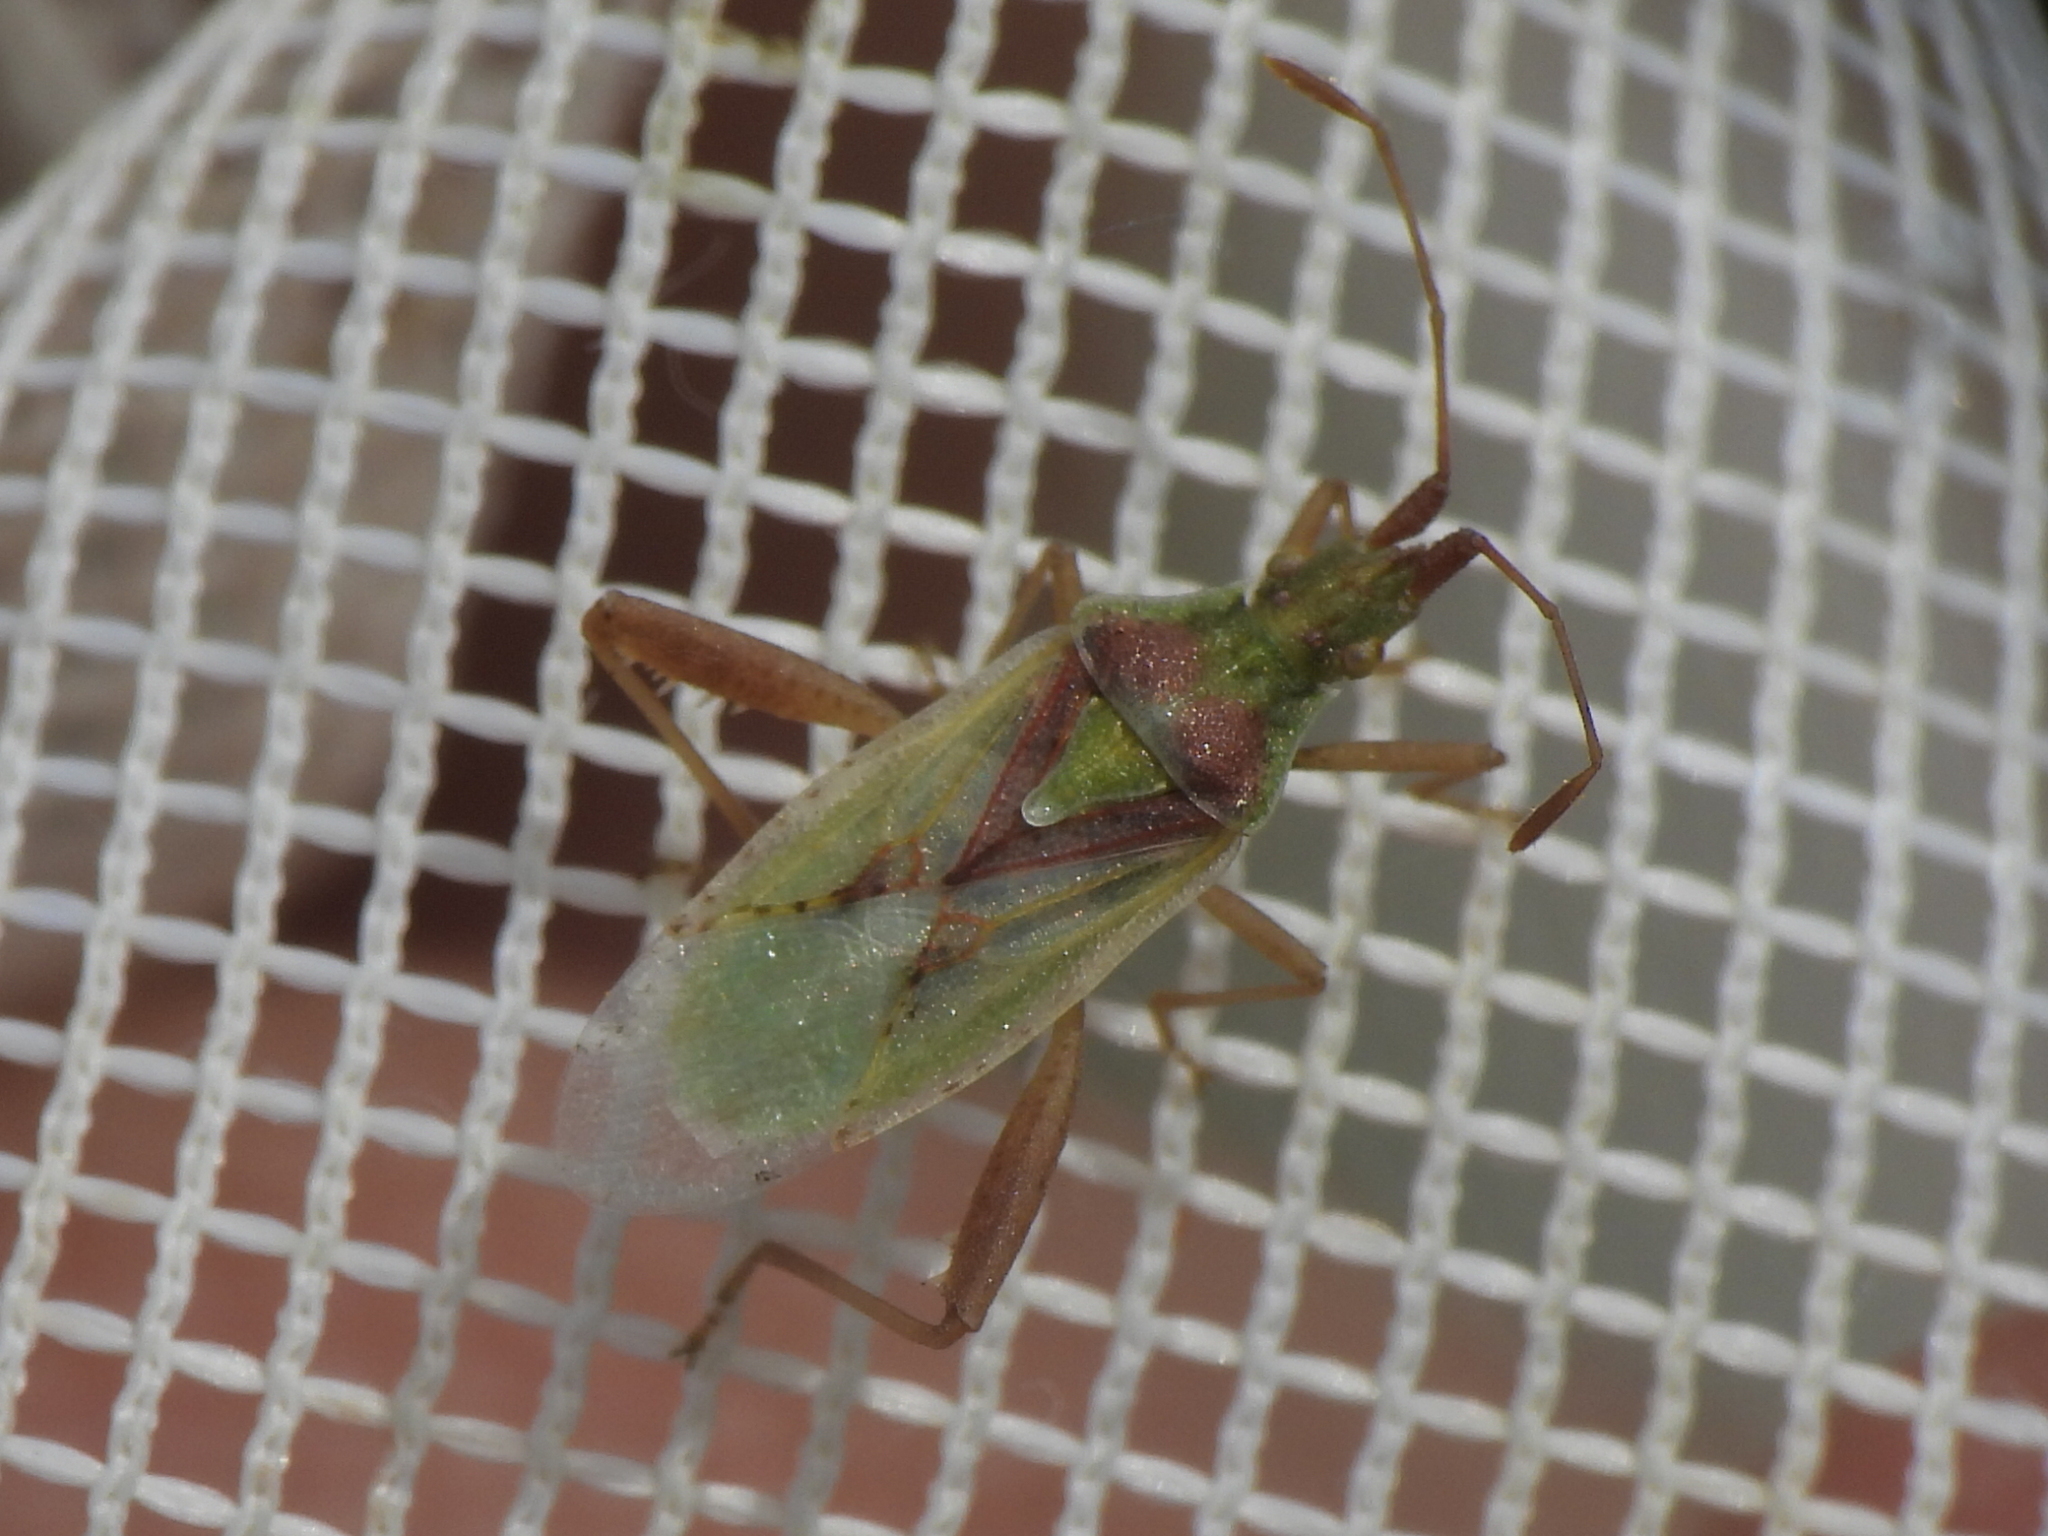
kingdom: Animalia
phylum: Arthropoda
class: Insecta
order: Hemiptera
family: Rhopalidae
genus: Harmostes
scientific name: Harmostes reflexulus
